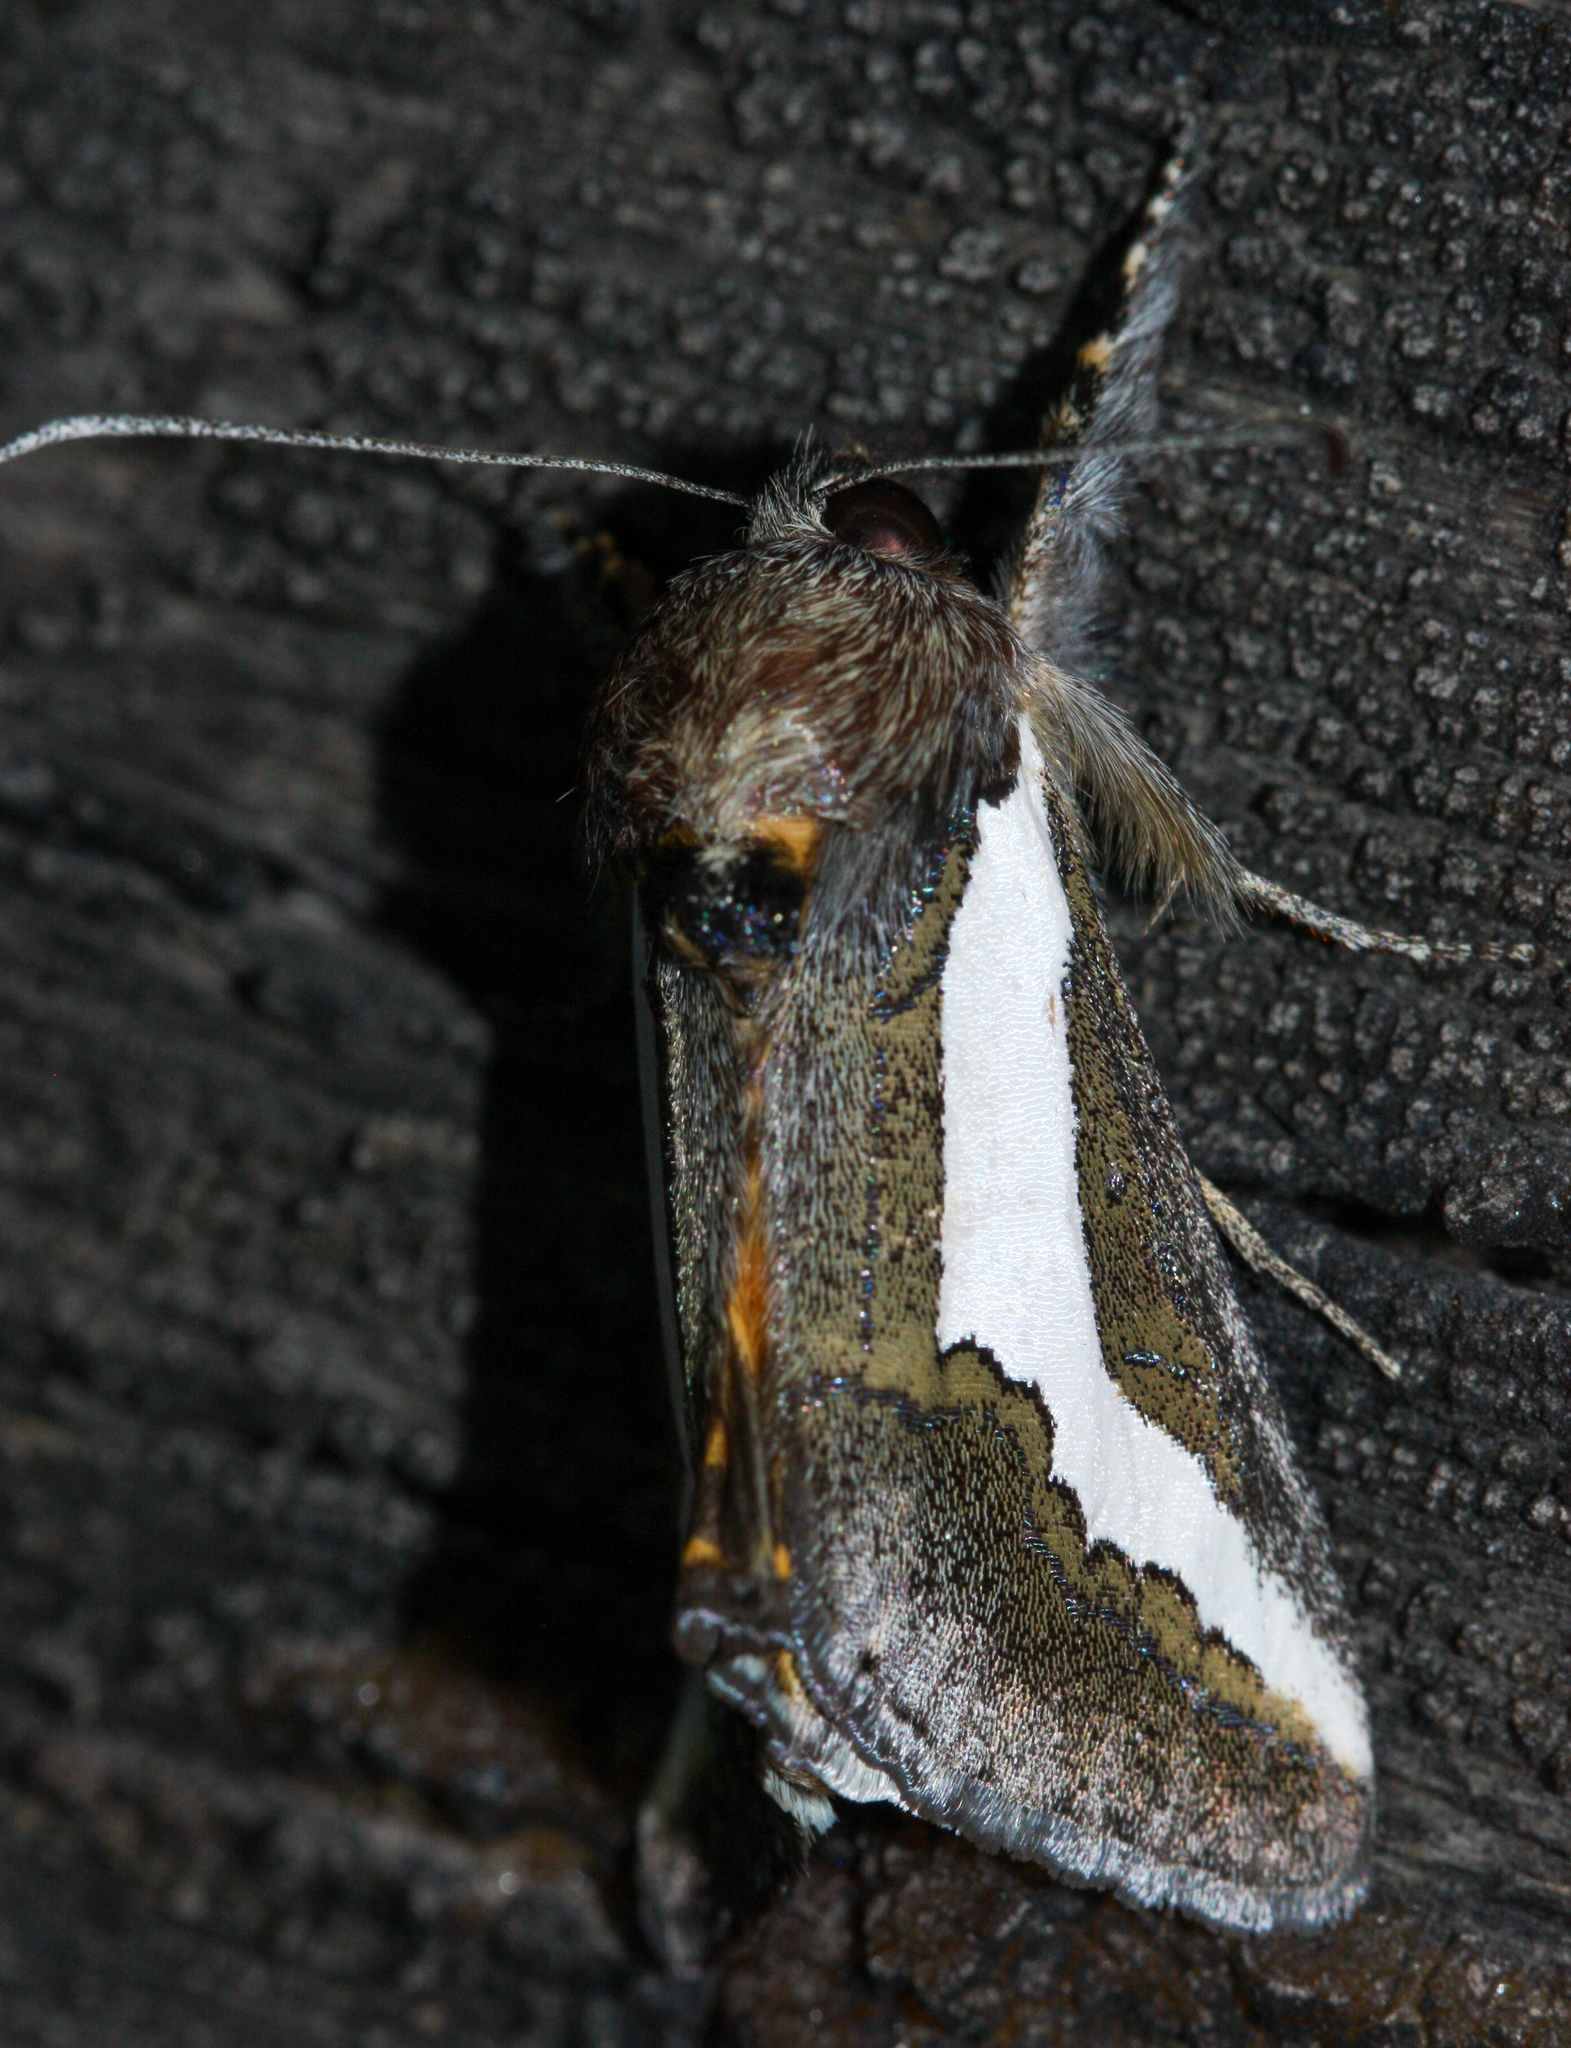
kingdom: Animalia
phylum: Arthropoda
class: Insecta
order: Lepidoptera
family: Noctuidae
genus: Euscirrhopterus
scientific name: Euscirrhopterus cosyra
